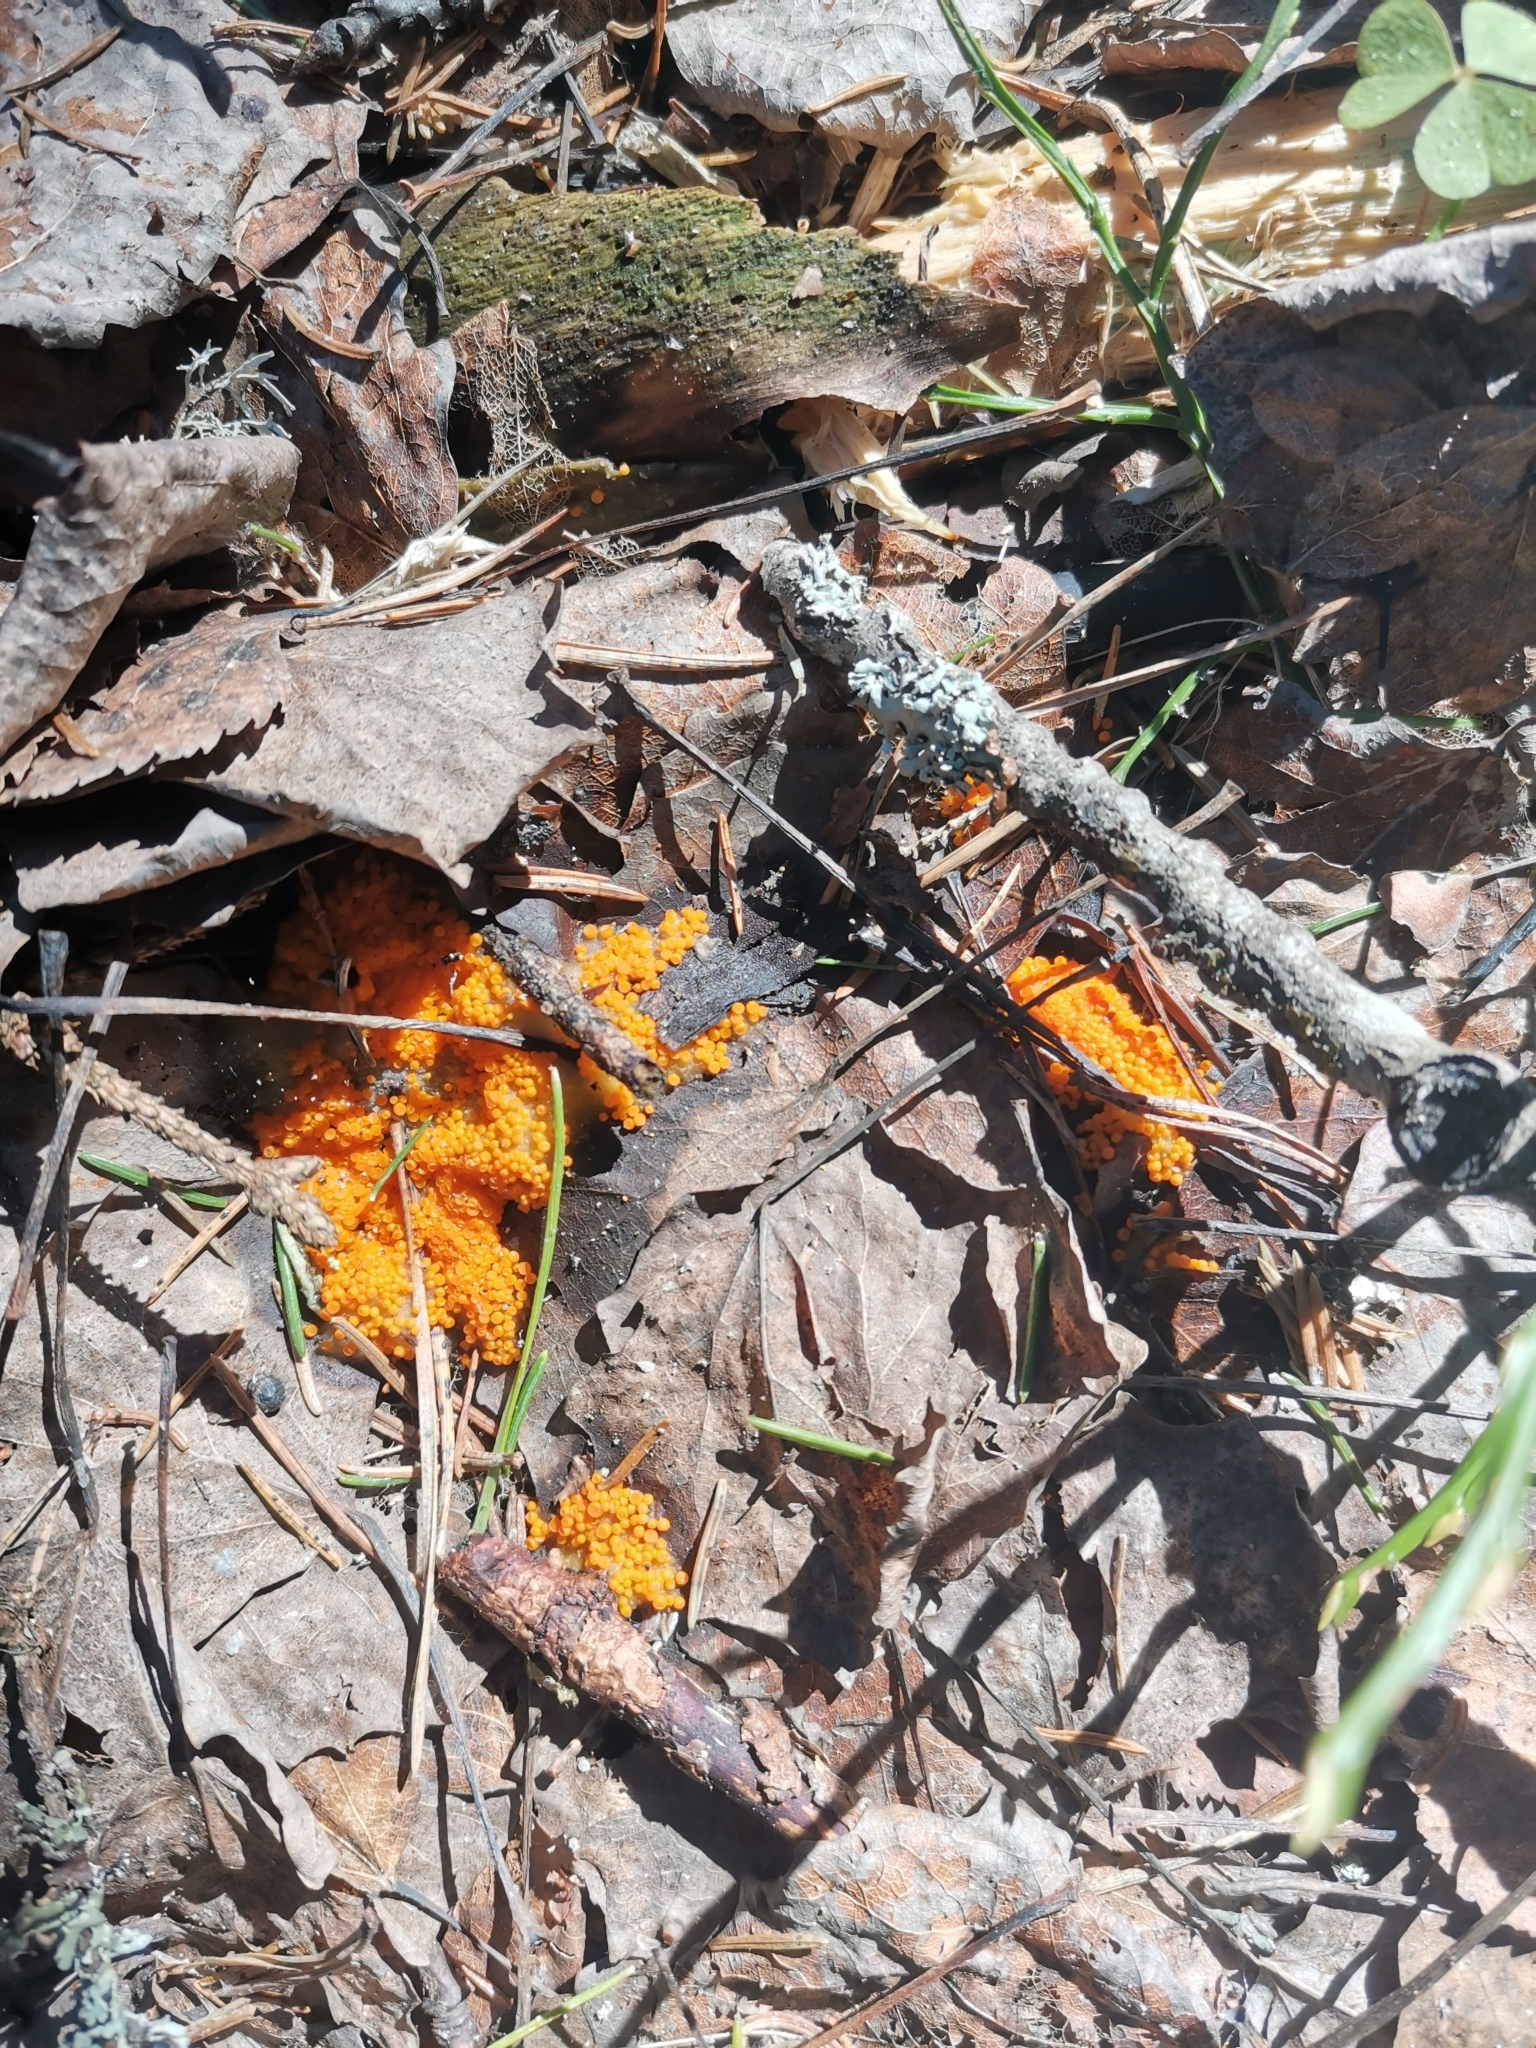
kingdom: Fungi
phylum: Ascomycota
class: Pezizomycetes
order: Pezizales
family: Pyronemataceae
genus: Byssonectria
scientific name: Byssonectria terrestris
